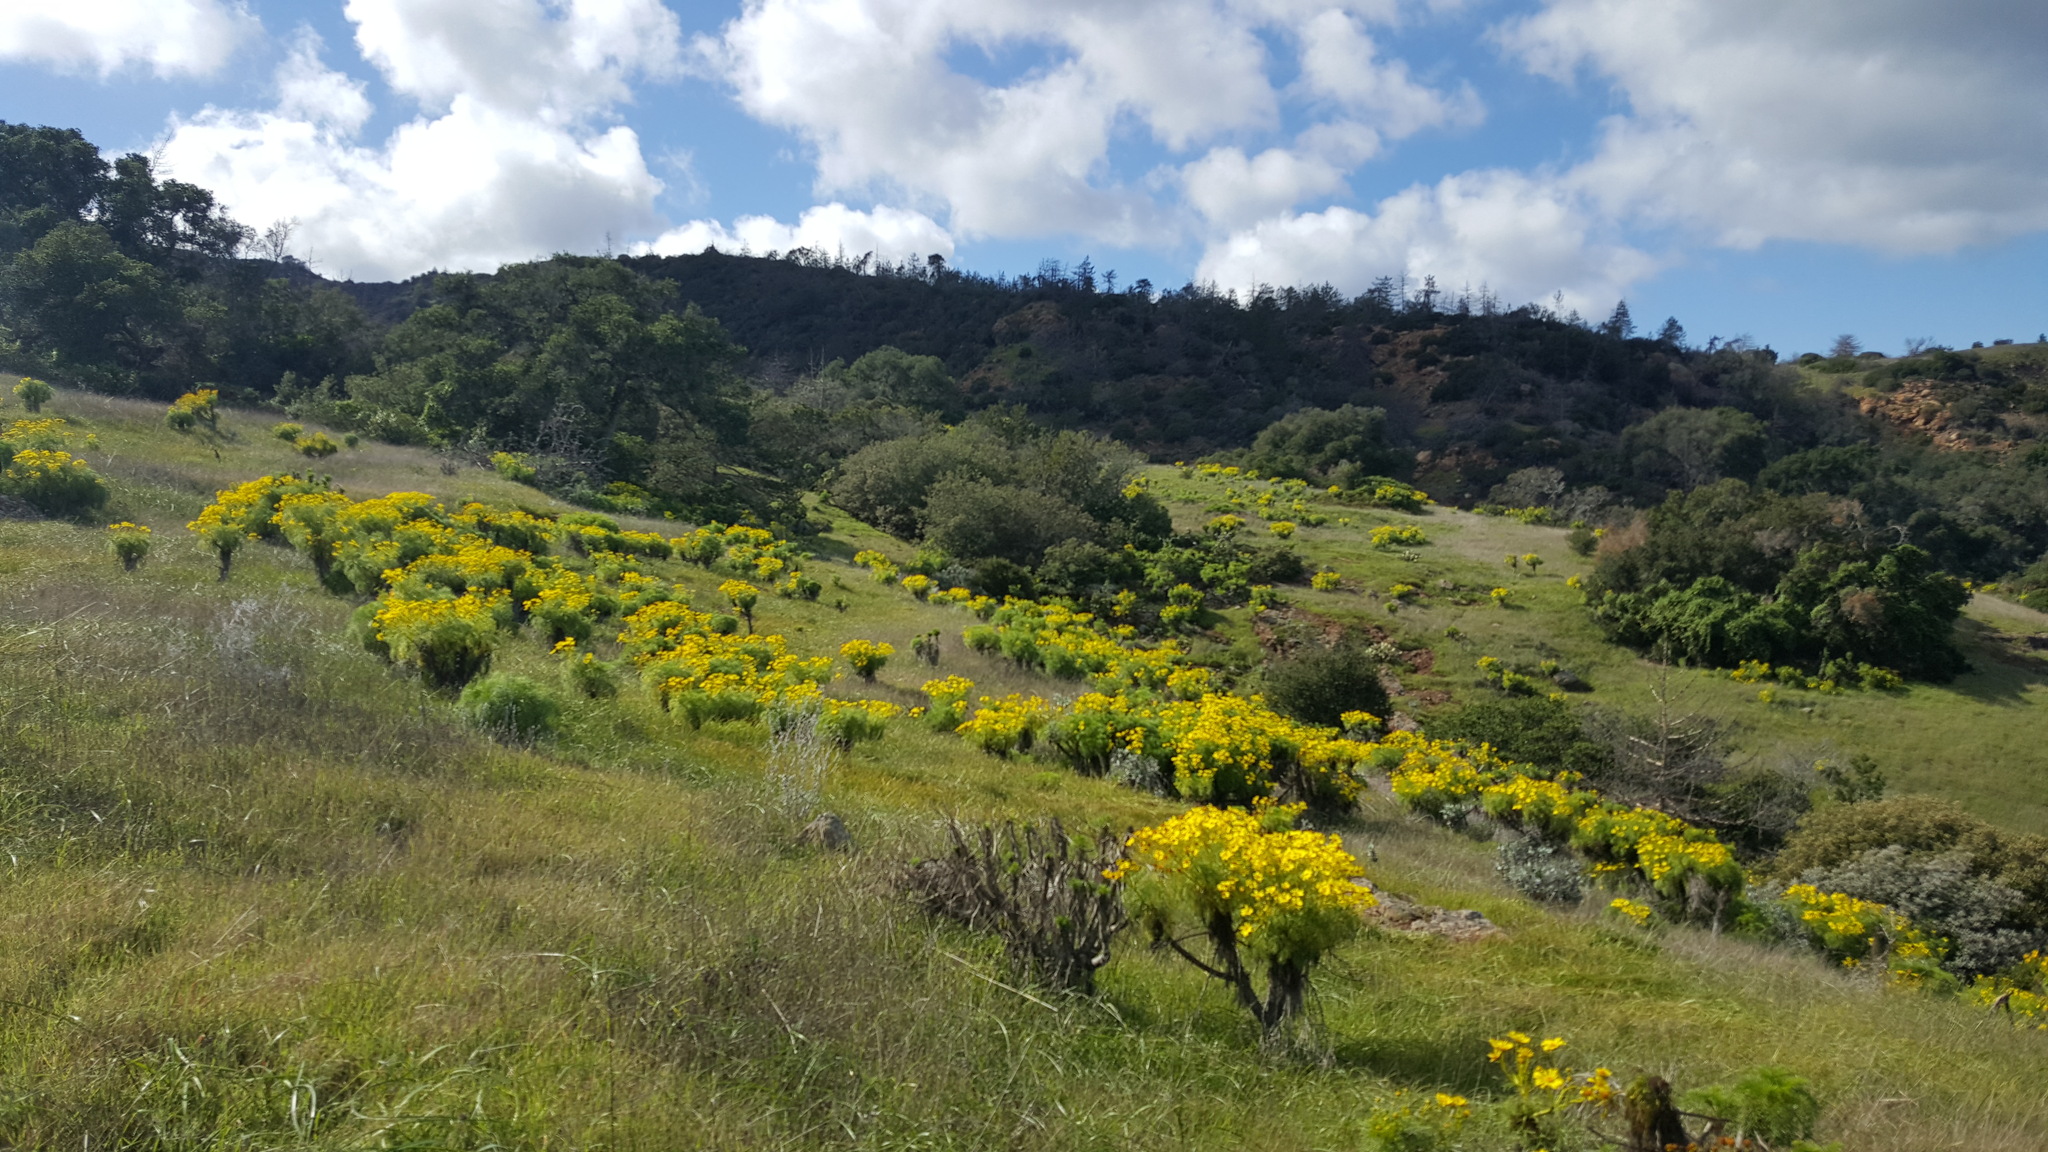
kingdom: Plantae
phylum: Tracheophyta
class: Magnoliopsida
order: Asterales
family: Asteraceae
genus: Coreopsis
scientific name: Coreopsis gigantea
